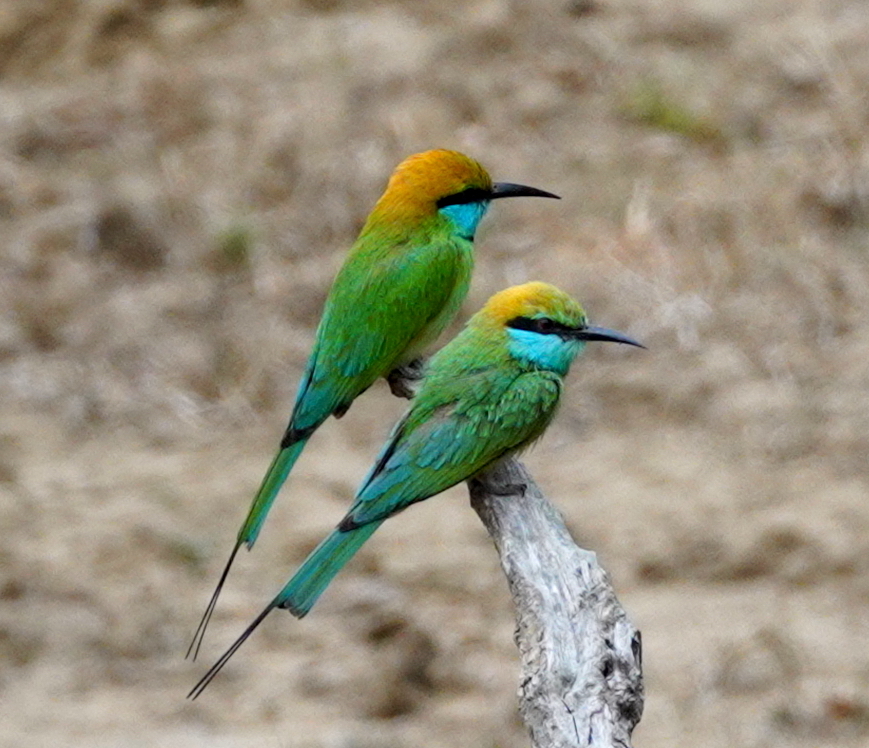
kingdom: Animalia
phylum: Chordata
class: Aves
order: Coraciiformes
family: Meropidae
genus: Merops
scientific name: Merops orientalis
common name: Green bee-eater
